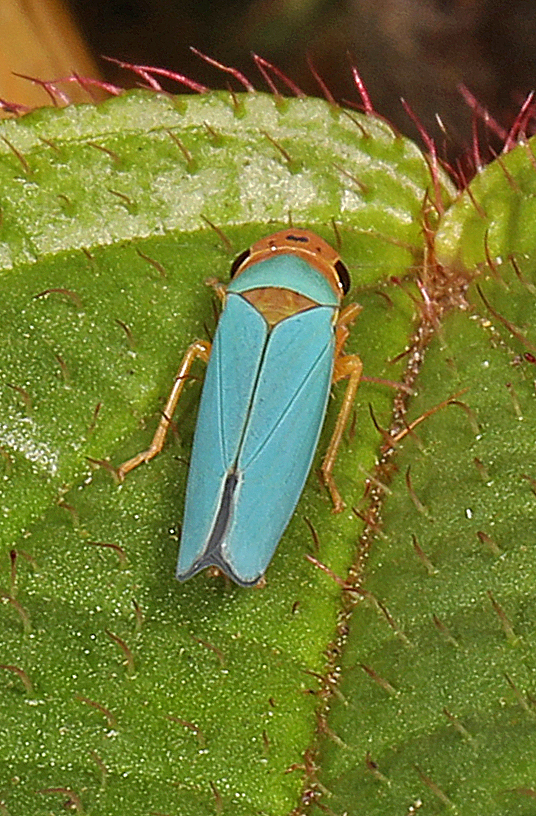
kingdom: Animalia
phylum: Arthropoda
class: Insecta
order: Hemiptera
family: Cicadellidae
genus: Macunolla
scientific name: Macunolla ventralis
